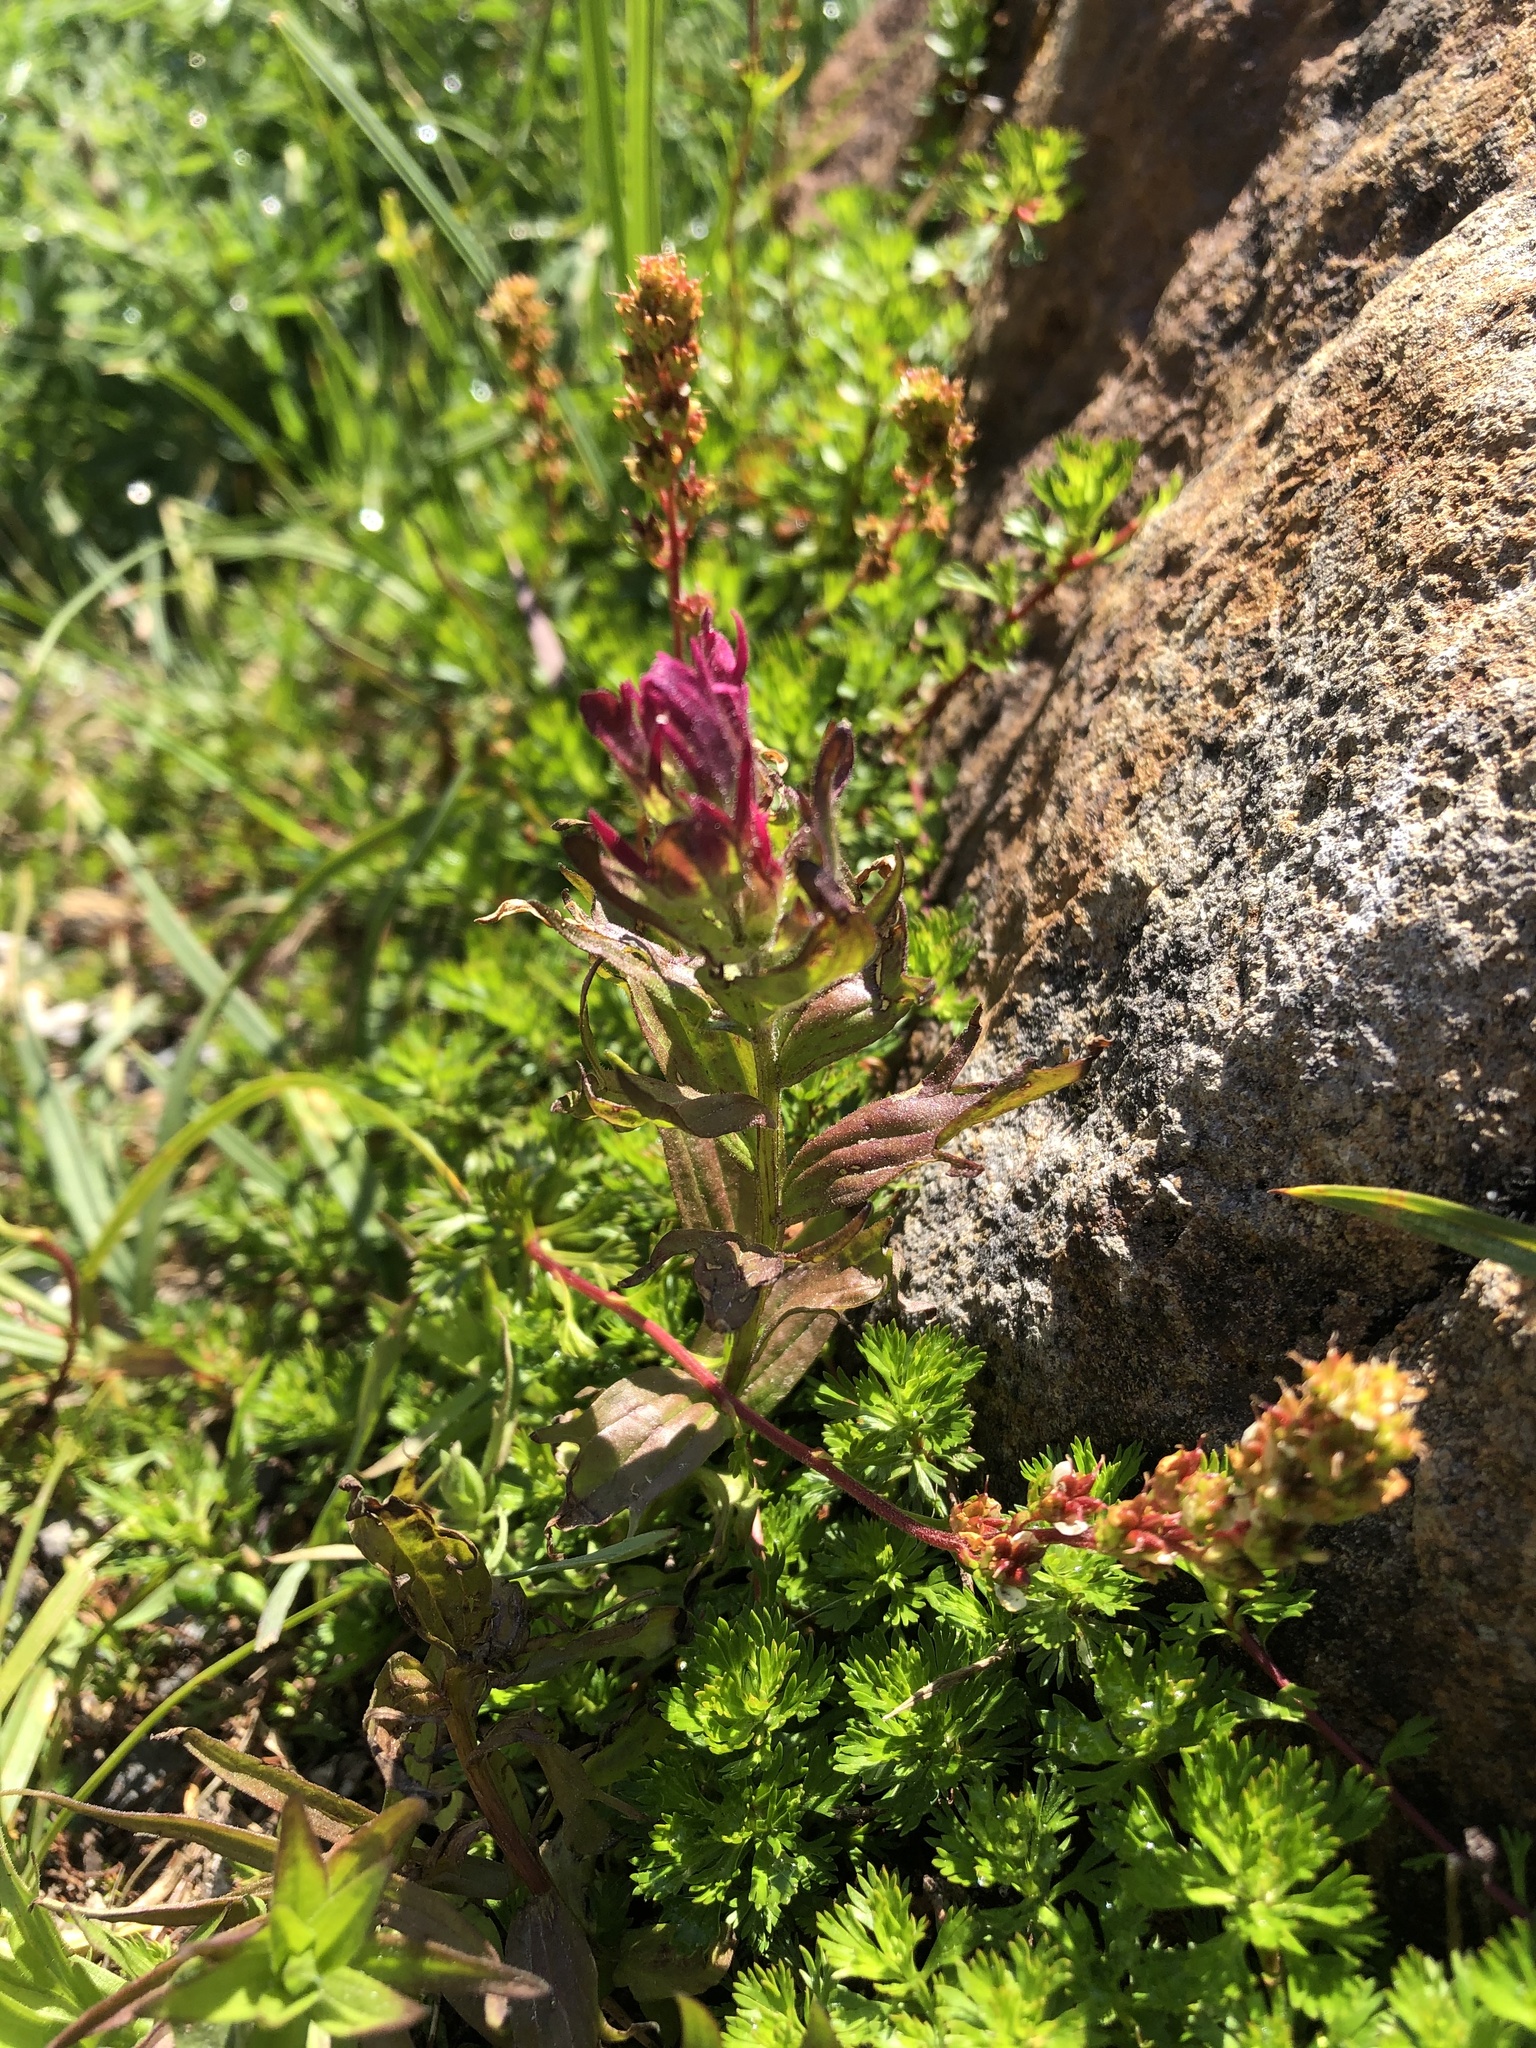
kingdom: Plantae
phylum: Tracheophyta
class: Magnoliopsida
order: Lamiales
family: Orobanchaceae
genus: Castilleja
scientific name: Castilleja parviflora
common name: Mountain paintbrush
